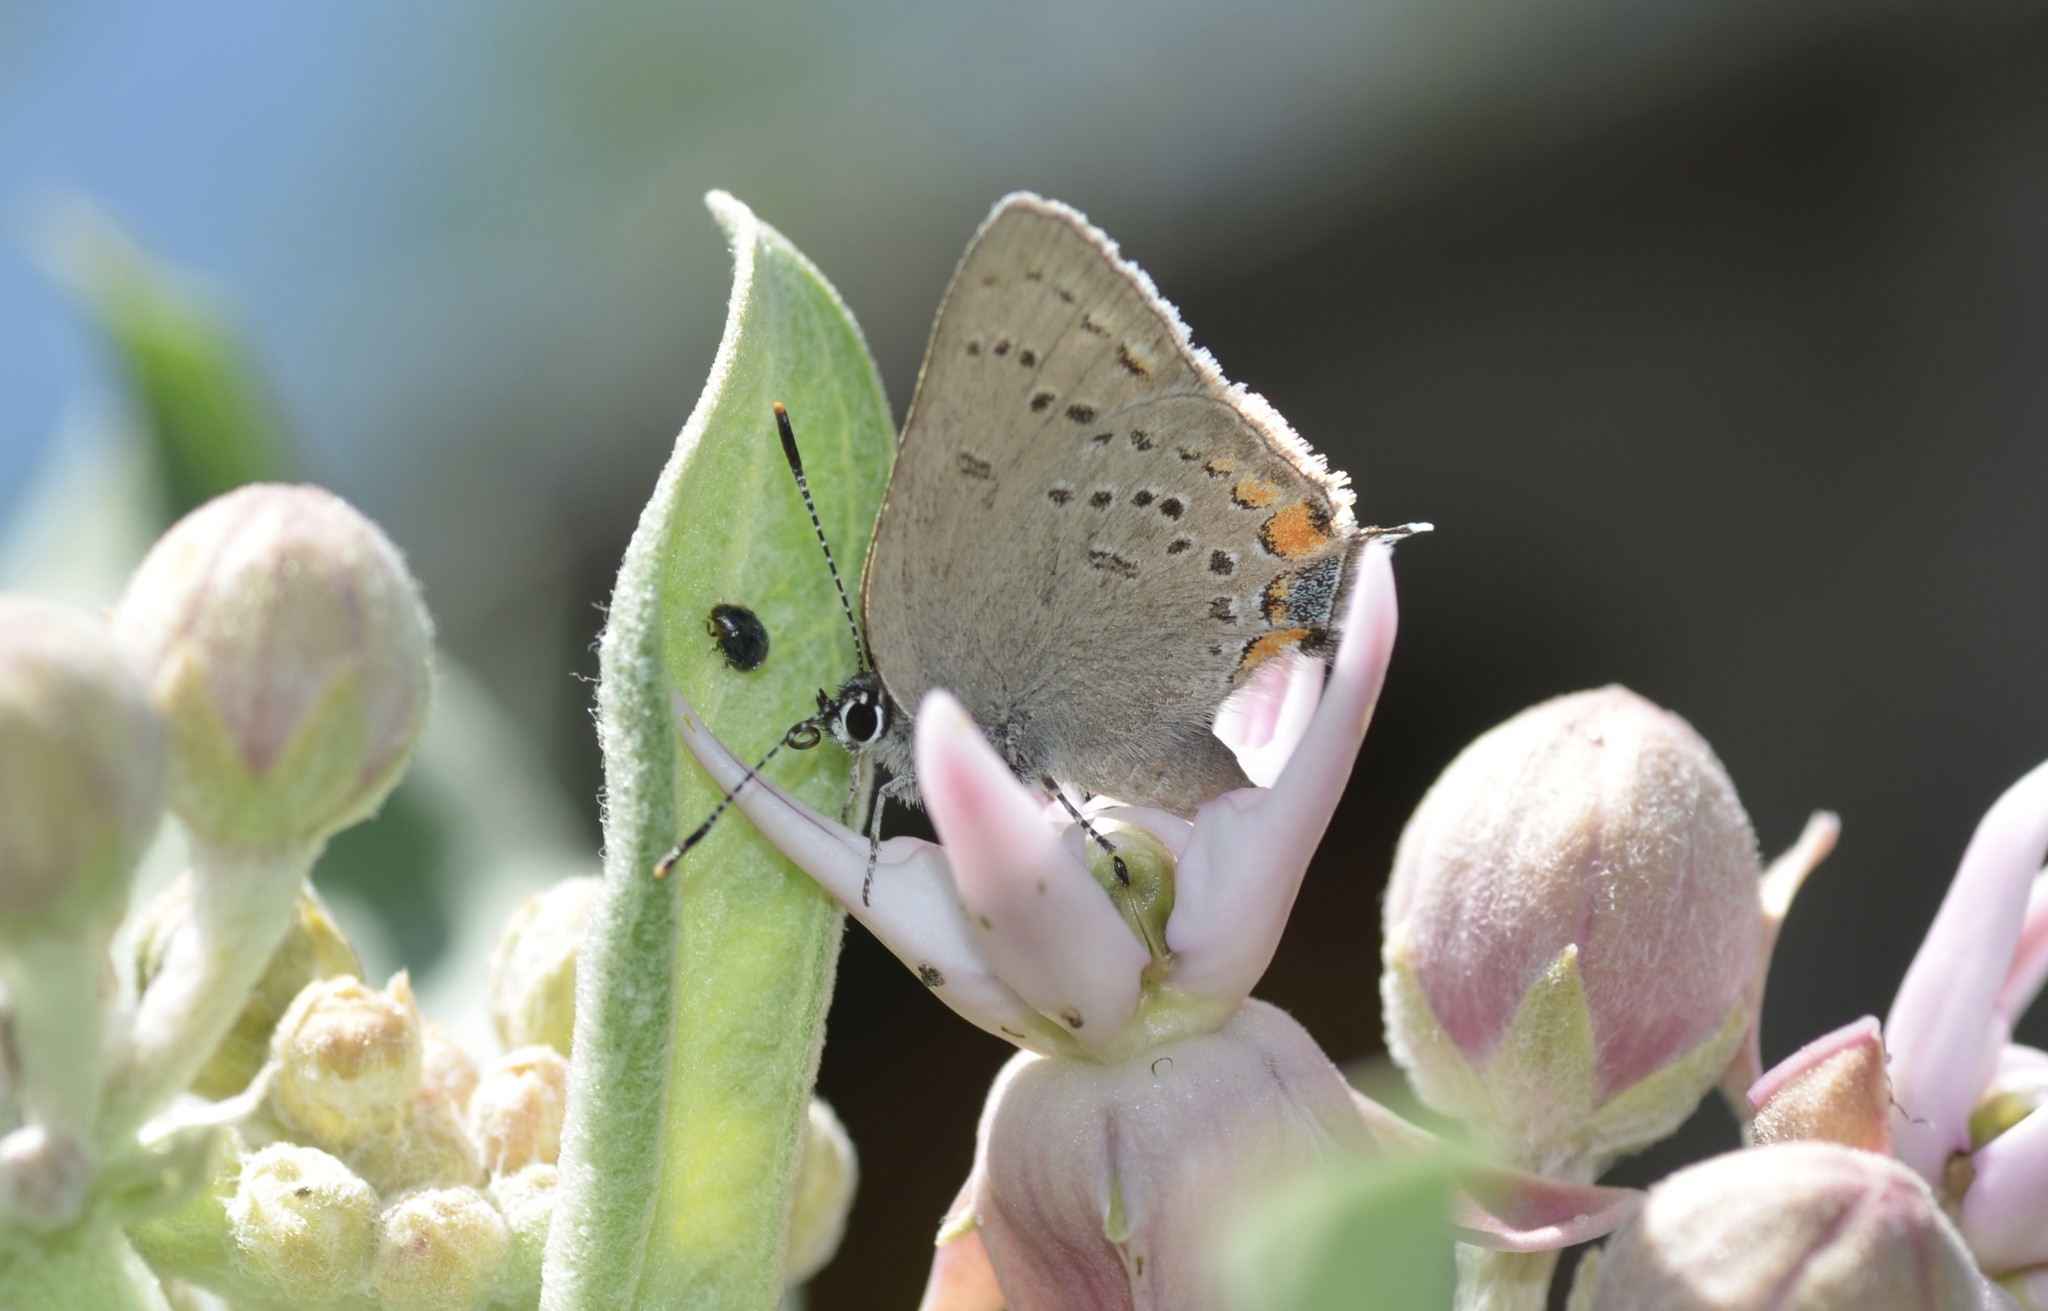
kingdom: Animalia
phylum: Arthropoda
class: Insecta
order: Lepidoptera
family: Lycaenidae
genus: Strymon
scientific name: Strymon acadica
